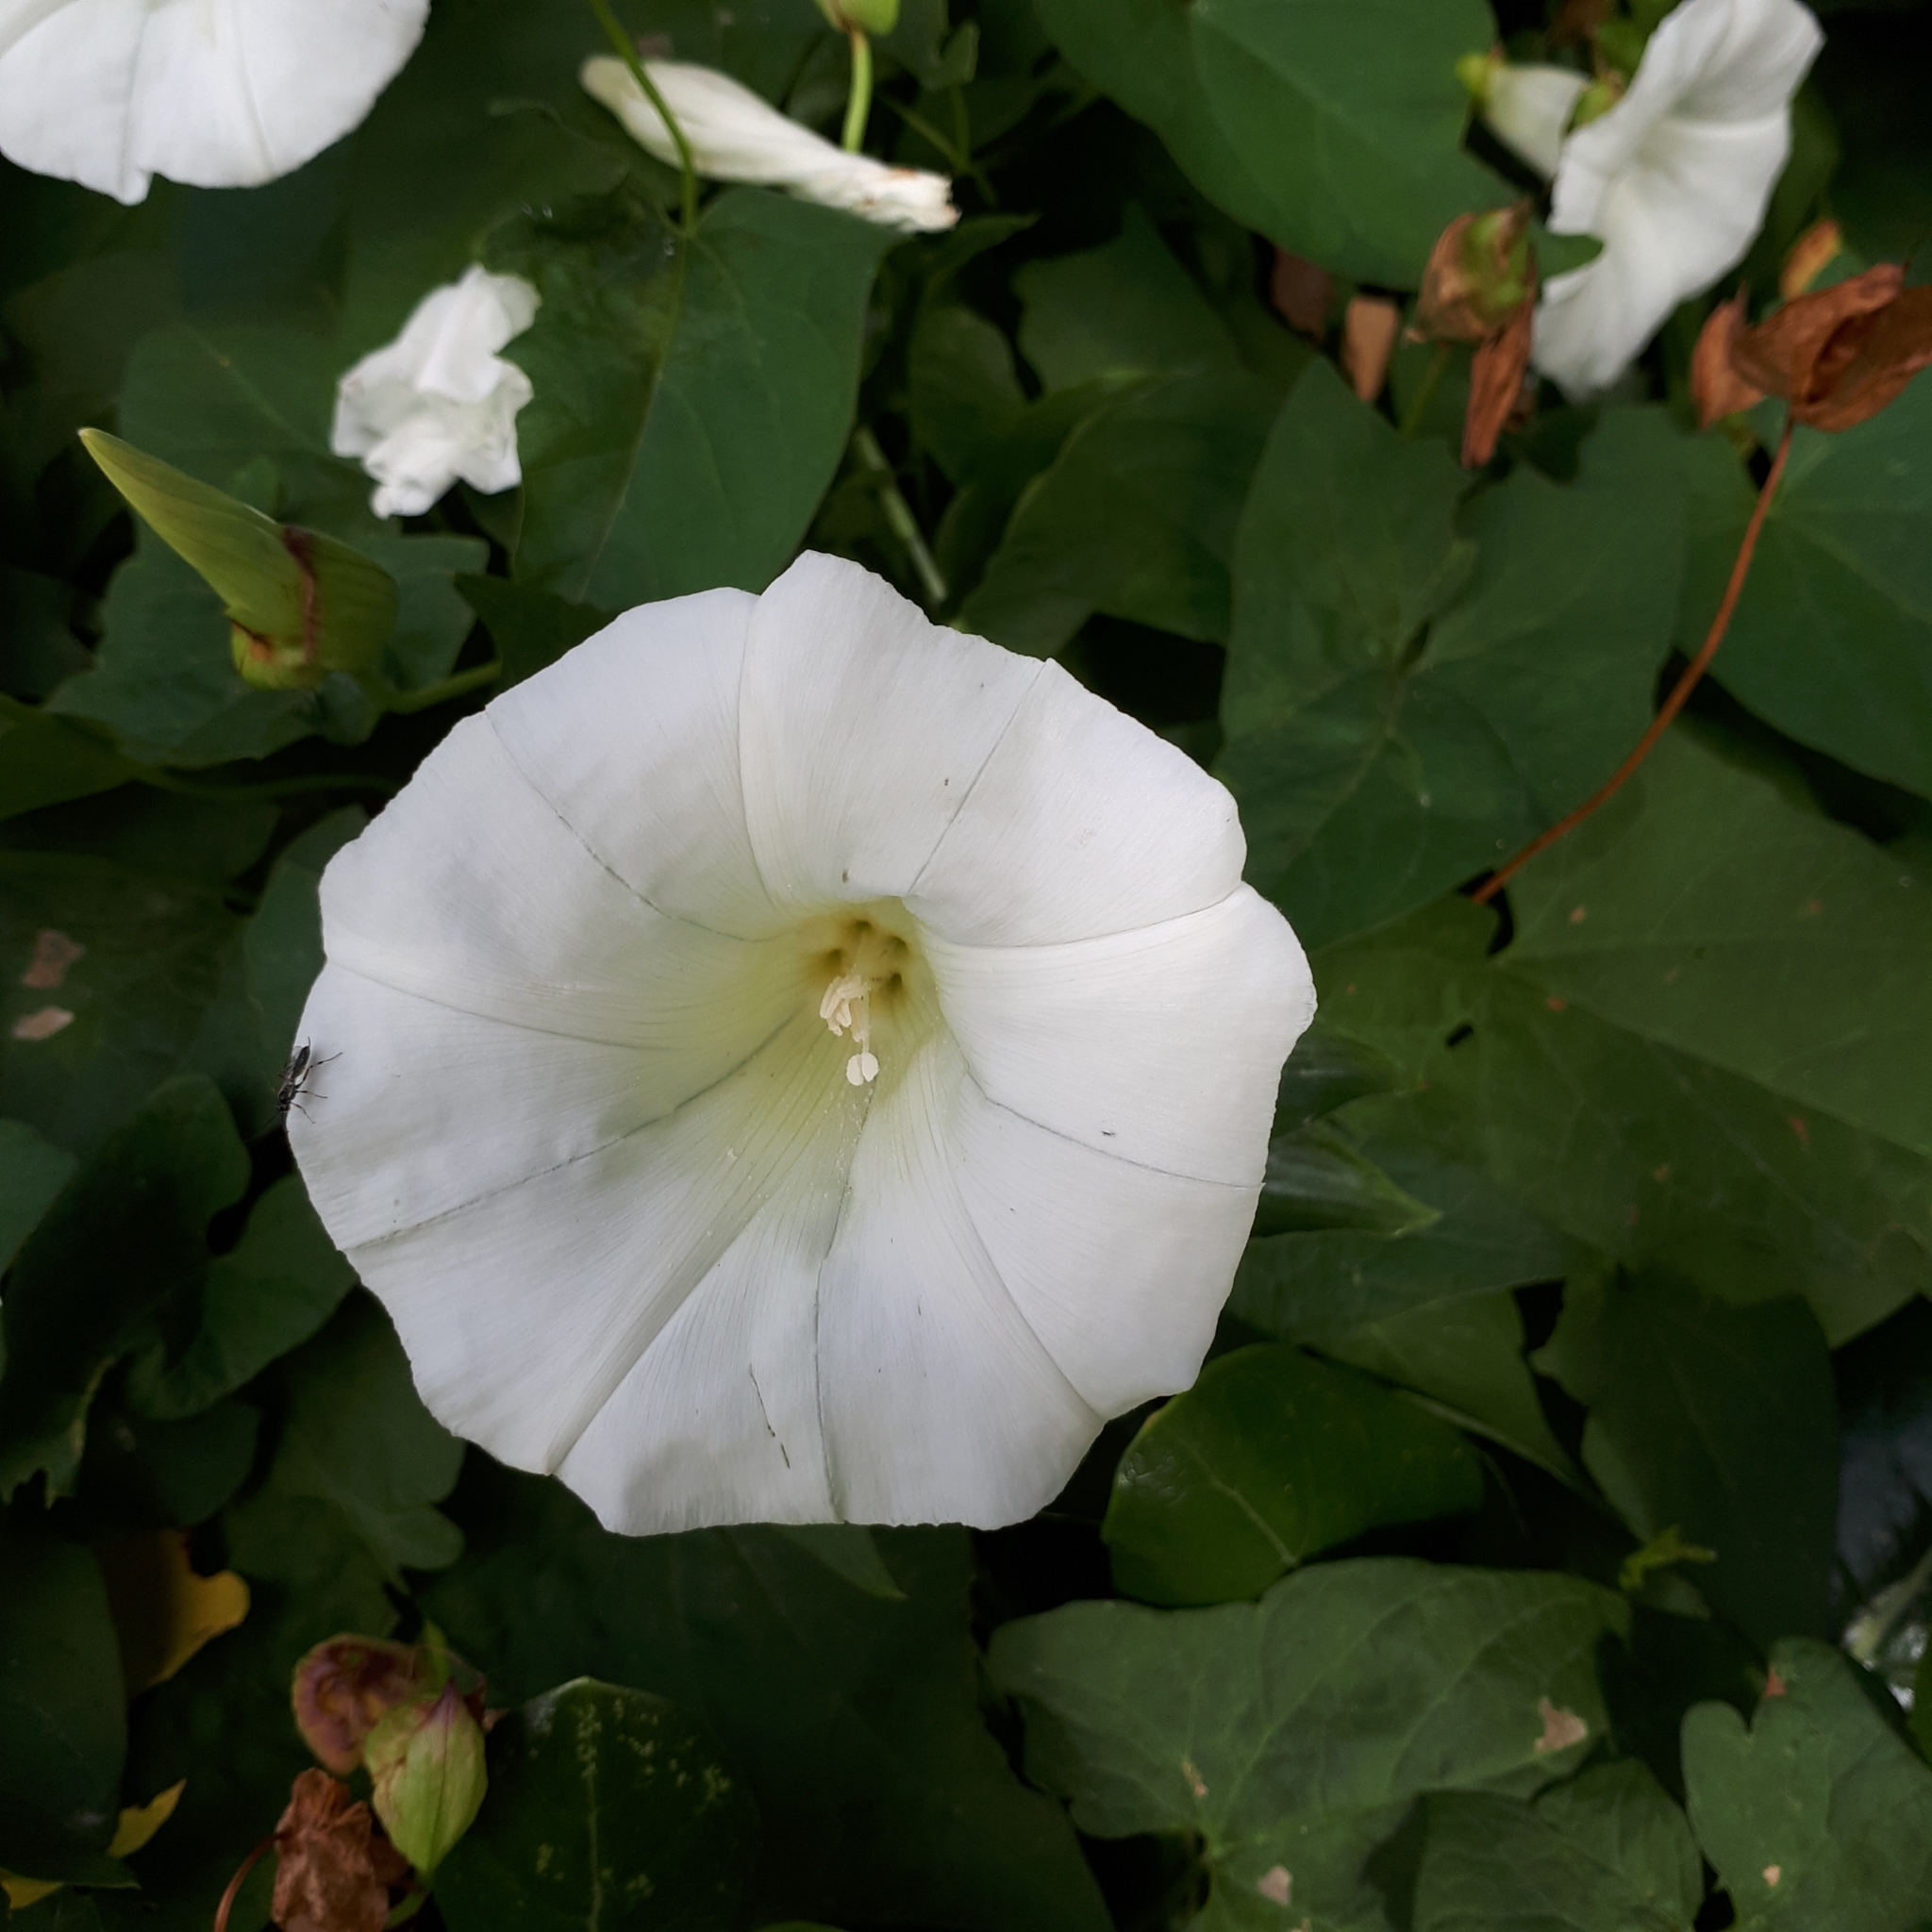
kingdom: Plantae
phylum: Tracheophyta
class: Magnoliopsida
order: Solanales
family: Convolvulaceae
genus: Calystegia
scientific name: Calystegia silvatica
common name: Large bindweed
